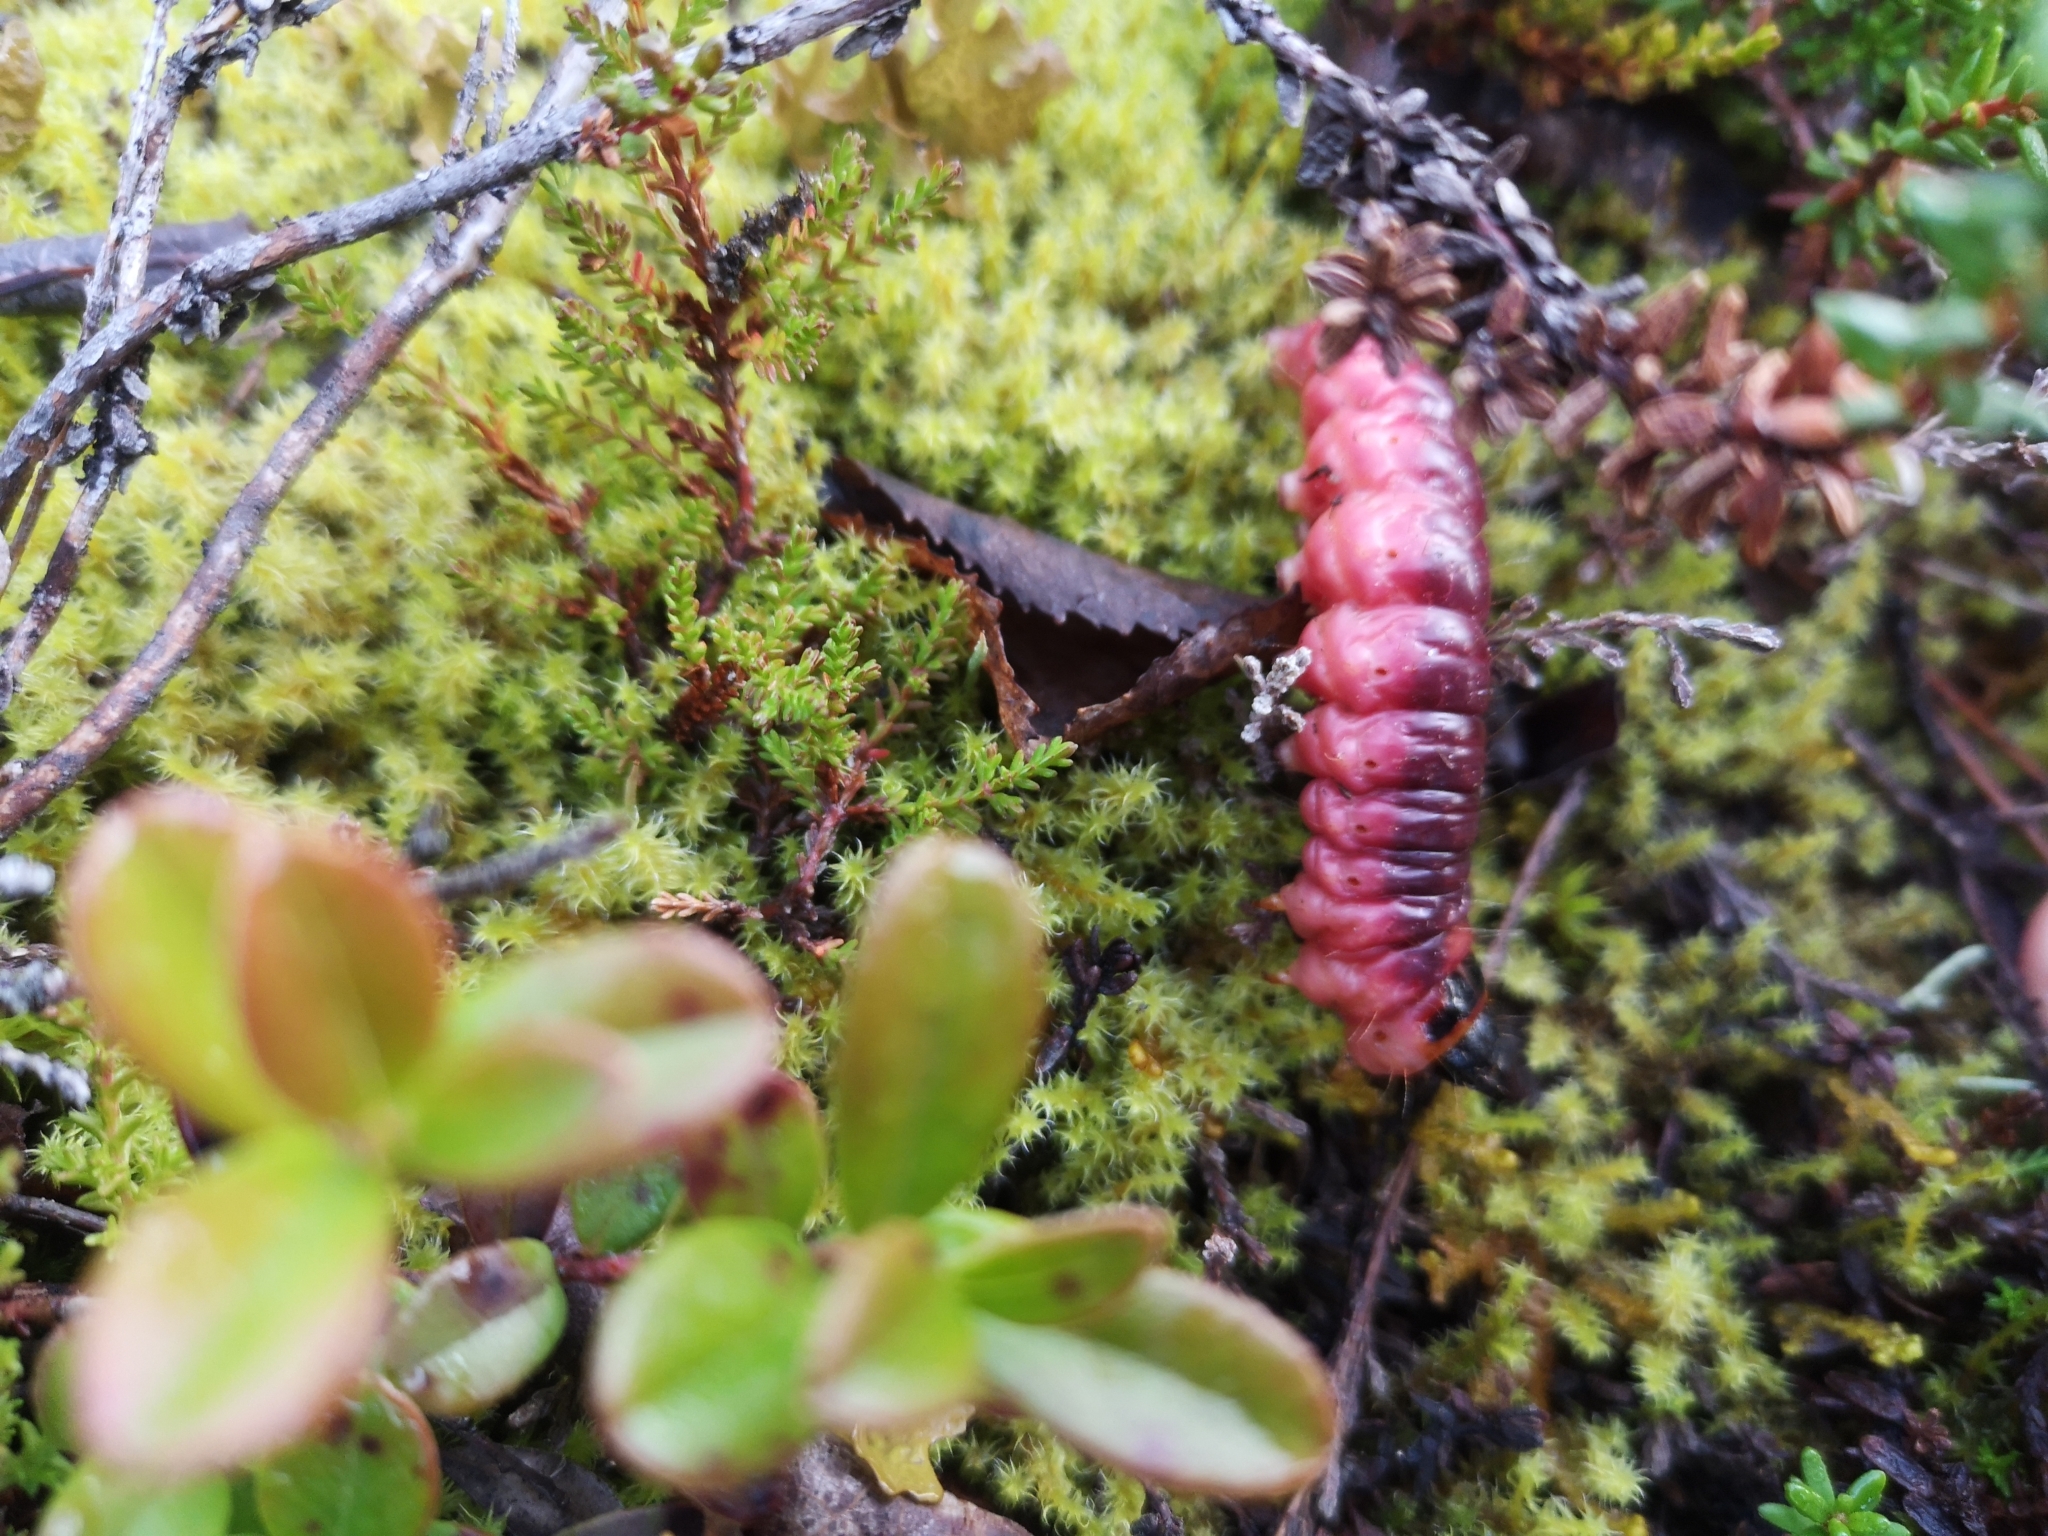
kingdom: Animalia
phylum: Arthropoda
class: Insecta
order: Lepidoptera
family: Cossidae
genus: Cossus
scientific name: Cossus cossus
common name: Goat moth
